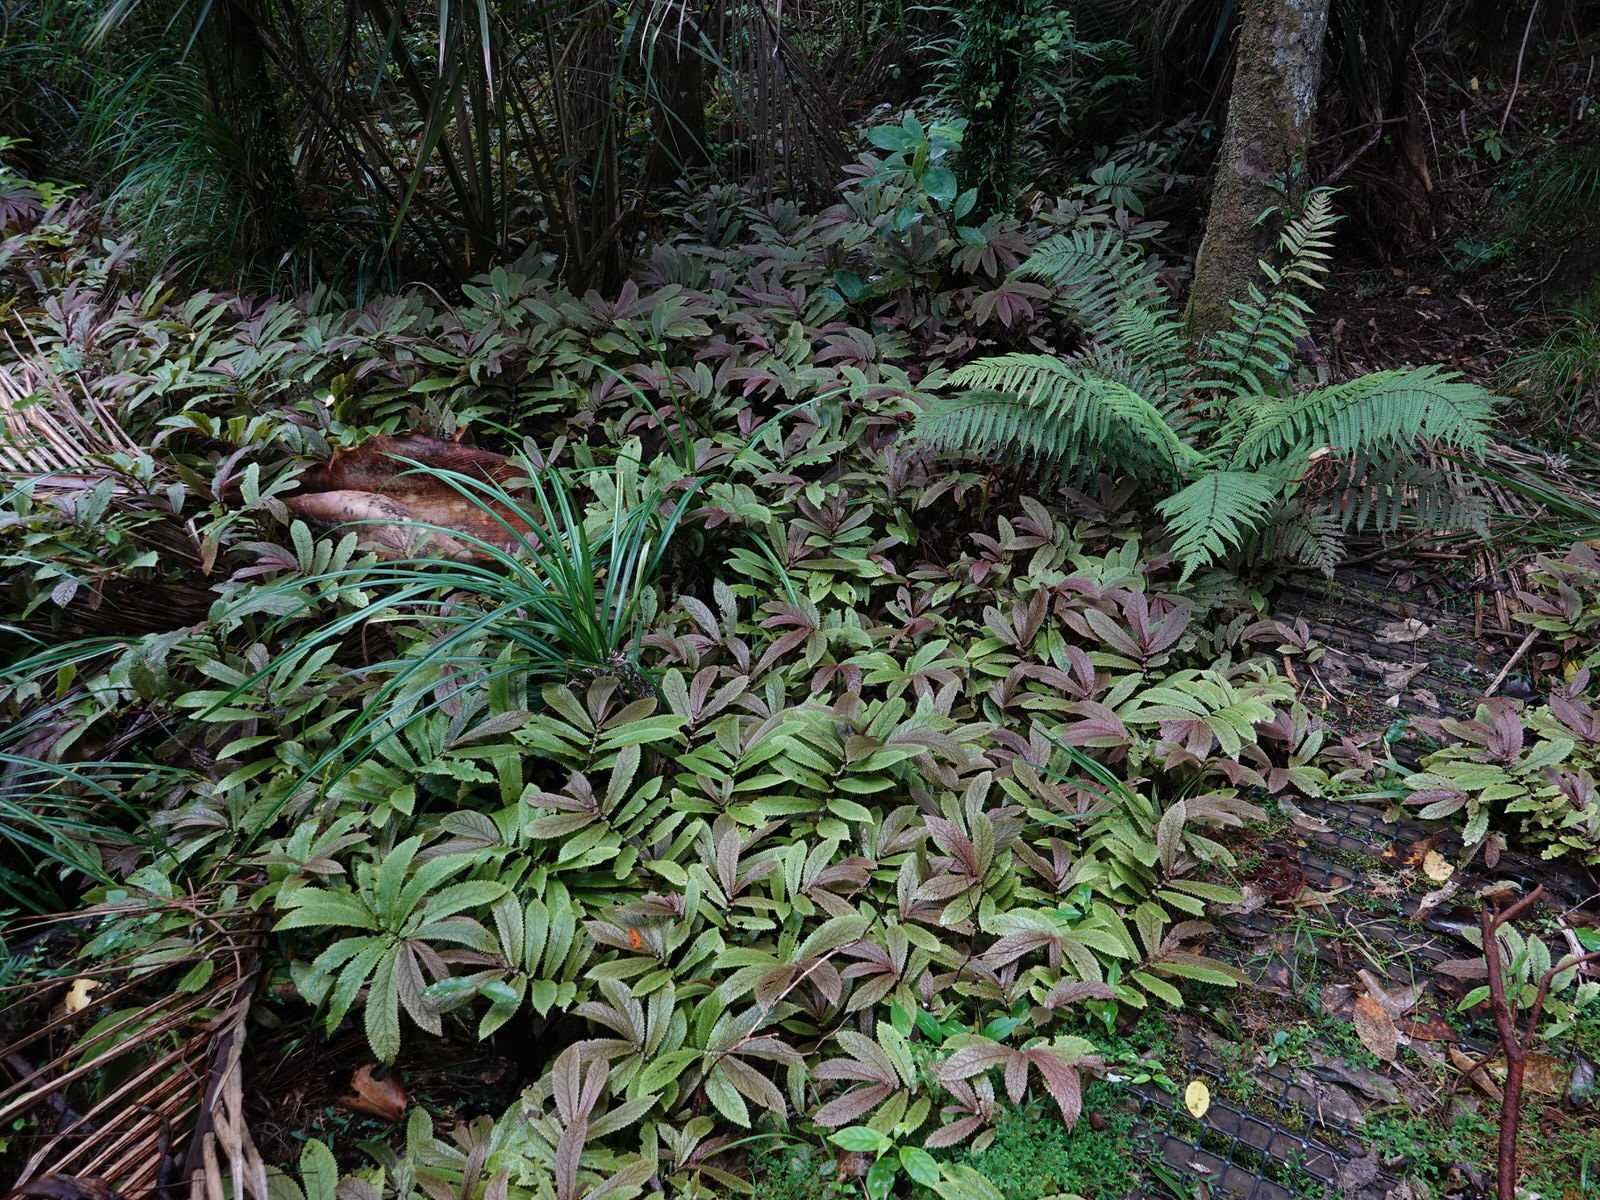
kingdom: Plantae
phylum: Tracheophyta
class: Magnoliopsida
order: Rosales
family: Urticaceae
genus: Elatostema
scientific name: Elatostema rugosum
